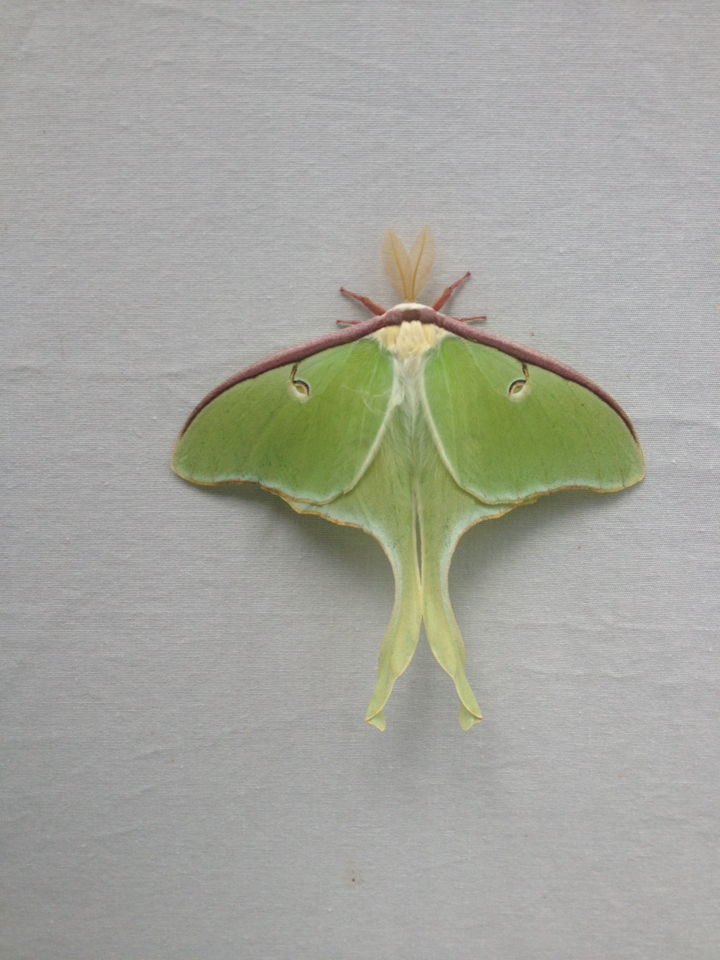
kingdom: Animalia
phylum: Arthropoda
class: Insecta
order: Lepidoptera
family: Saturniidae
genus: Actias
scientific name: Actias luna
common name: Luna moth
